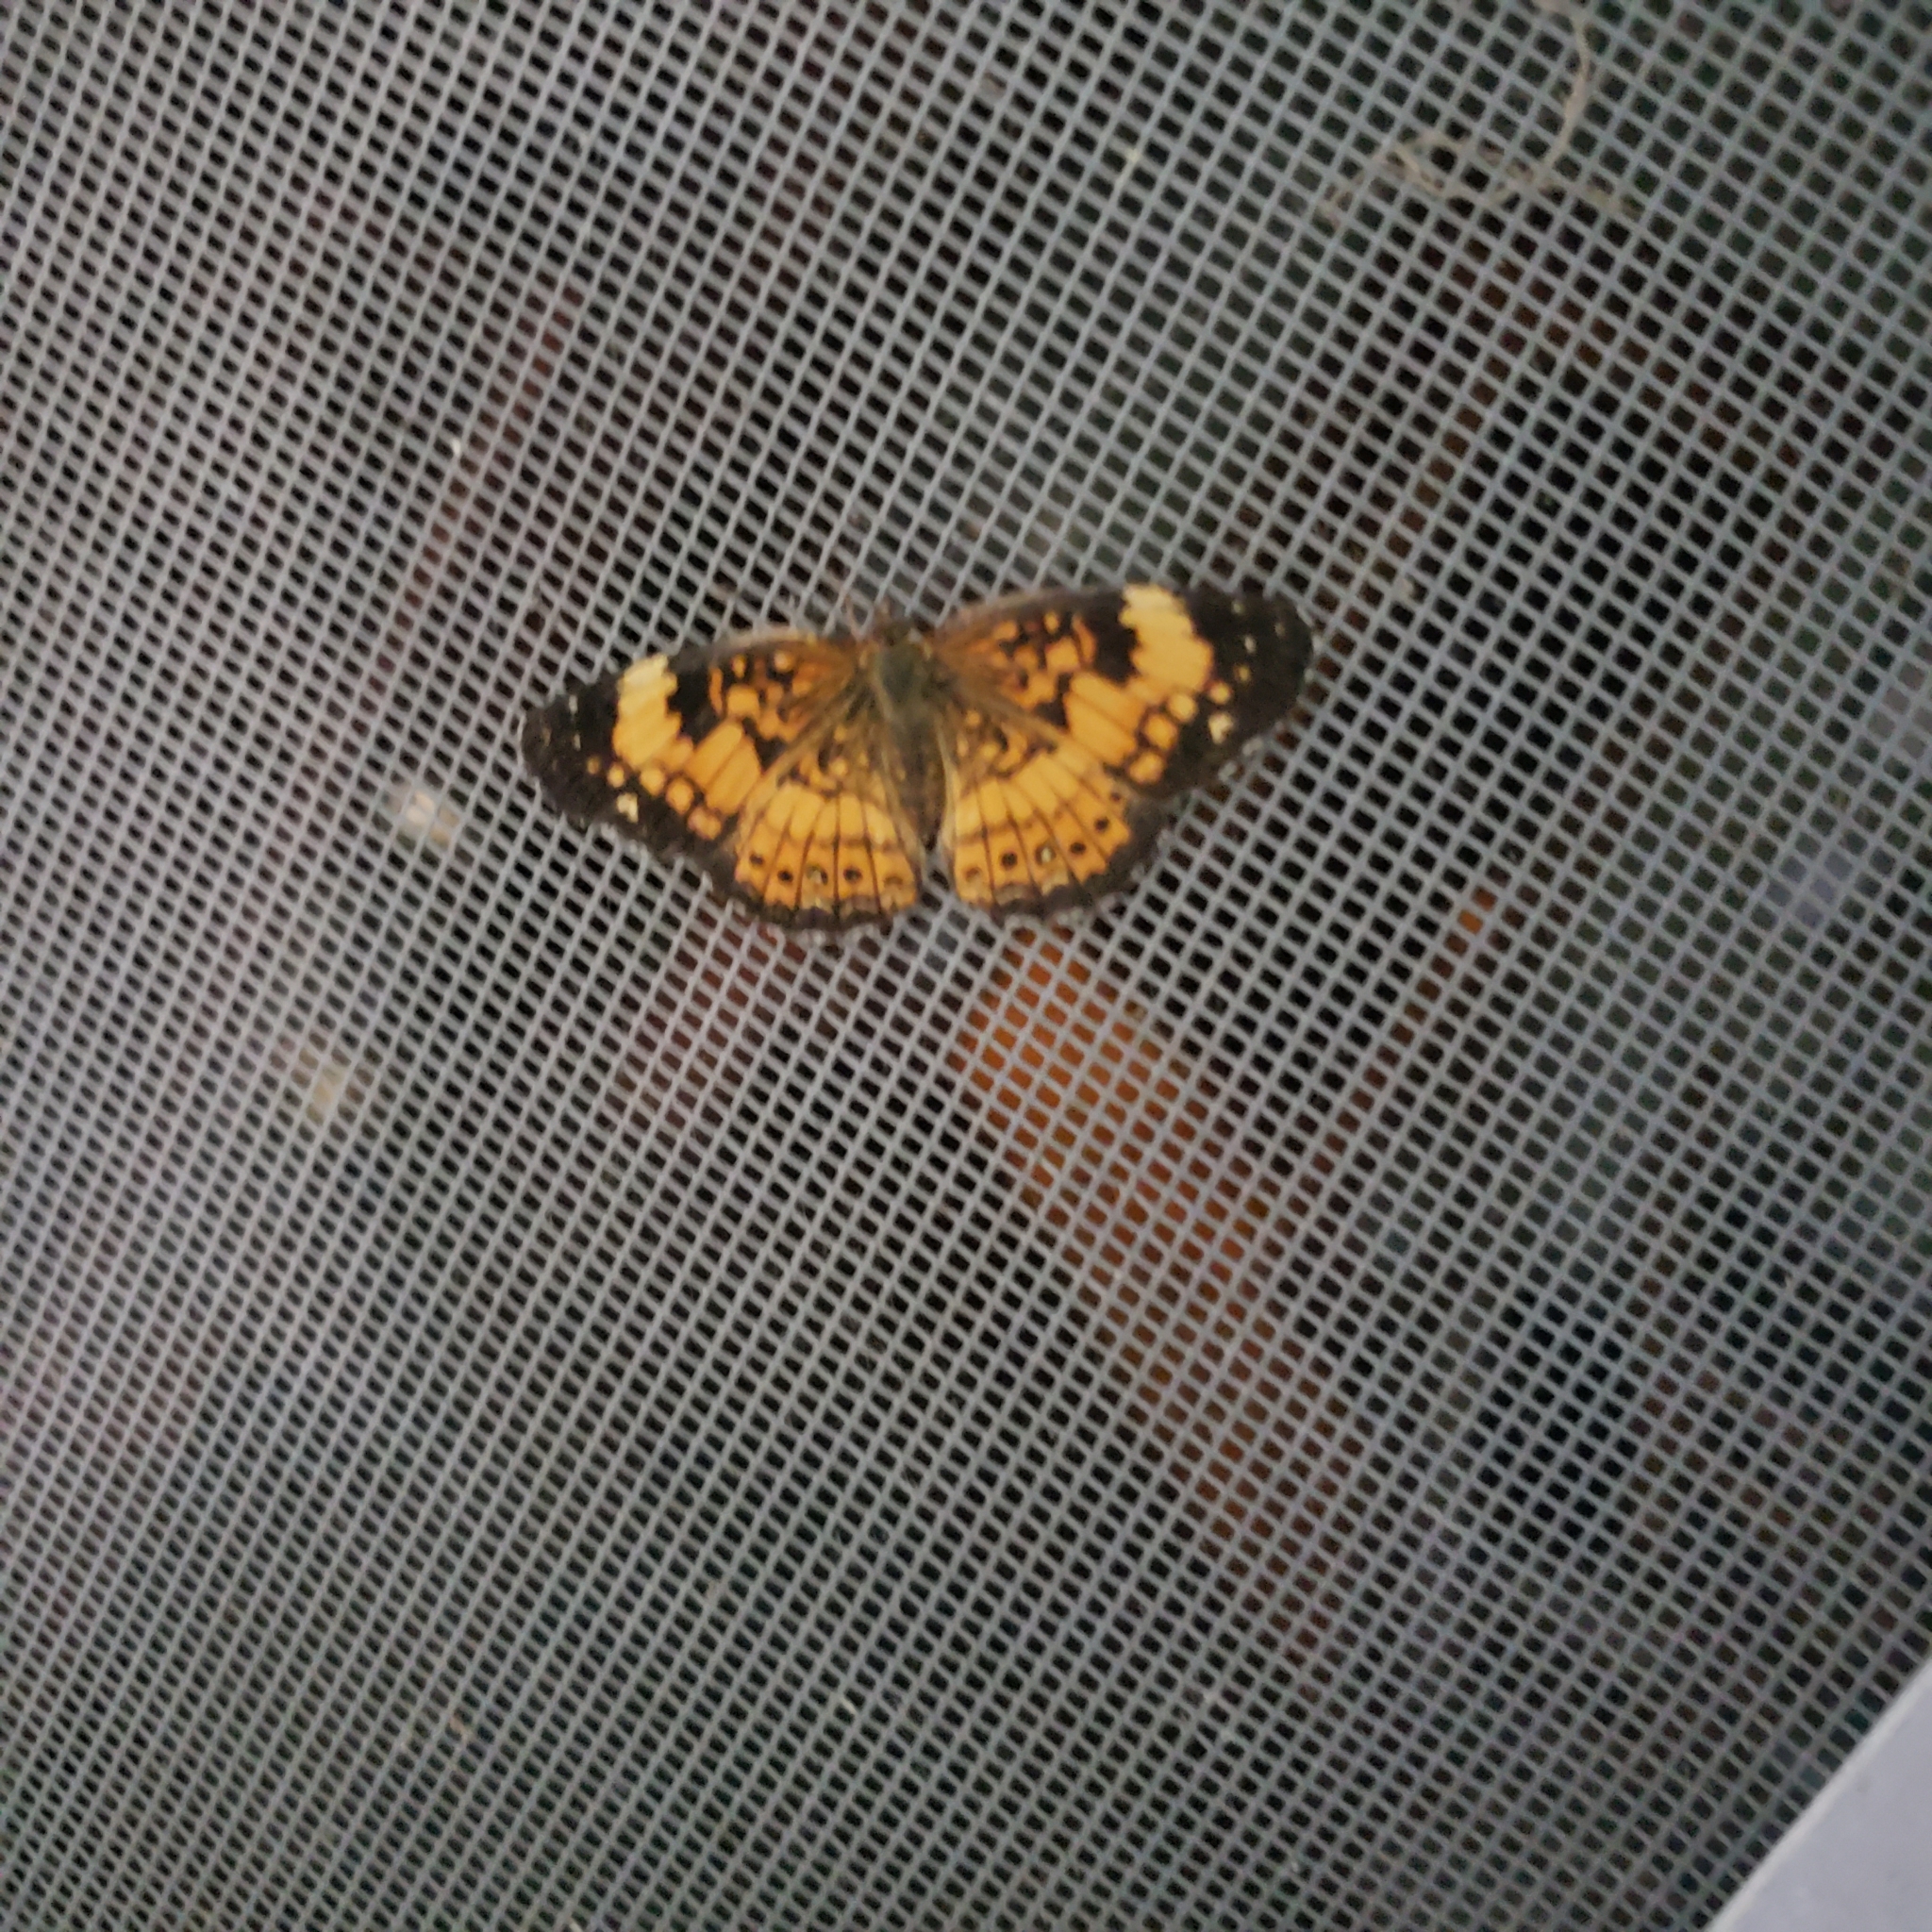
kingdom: Animalia
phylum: Arthropoda
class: Insecta
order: Lepidoptera
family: Nymphalidae
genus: Chlosyne
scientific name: Chlosyne nycteis
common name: Silvery checkerspot
